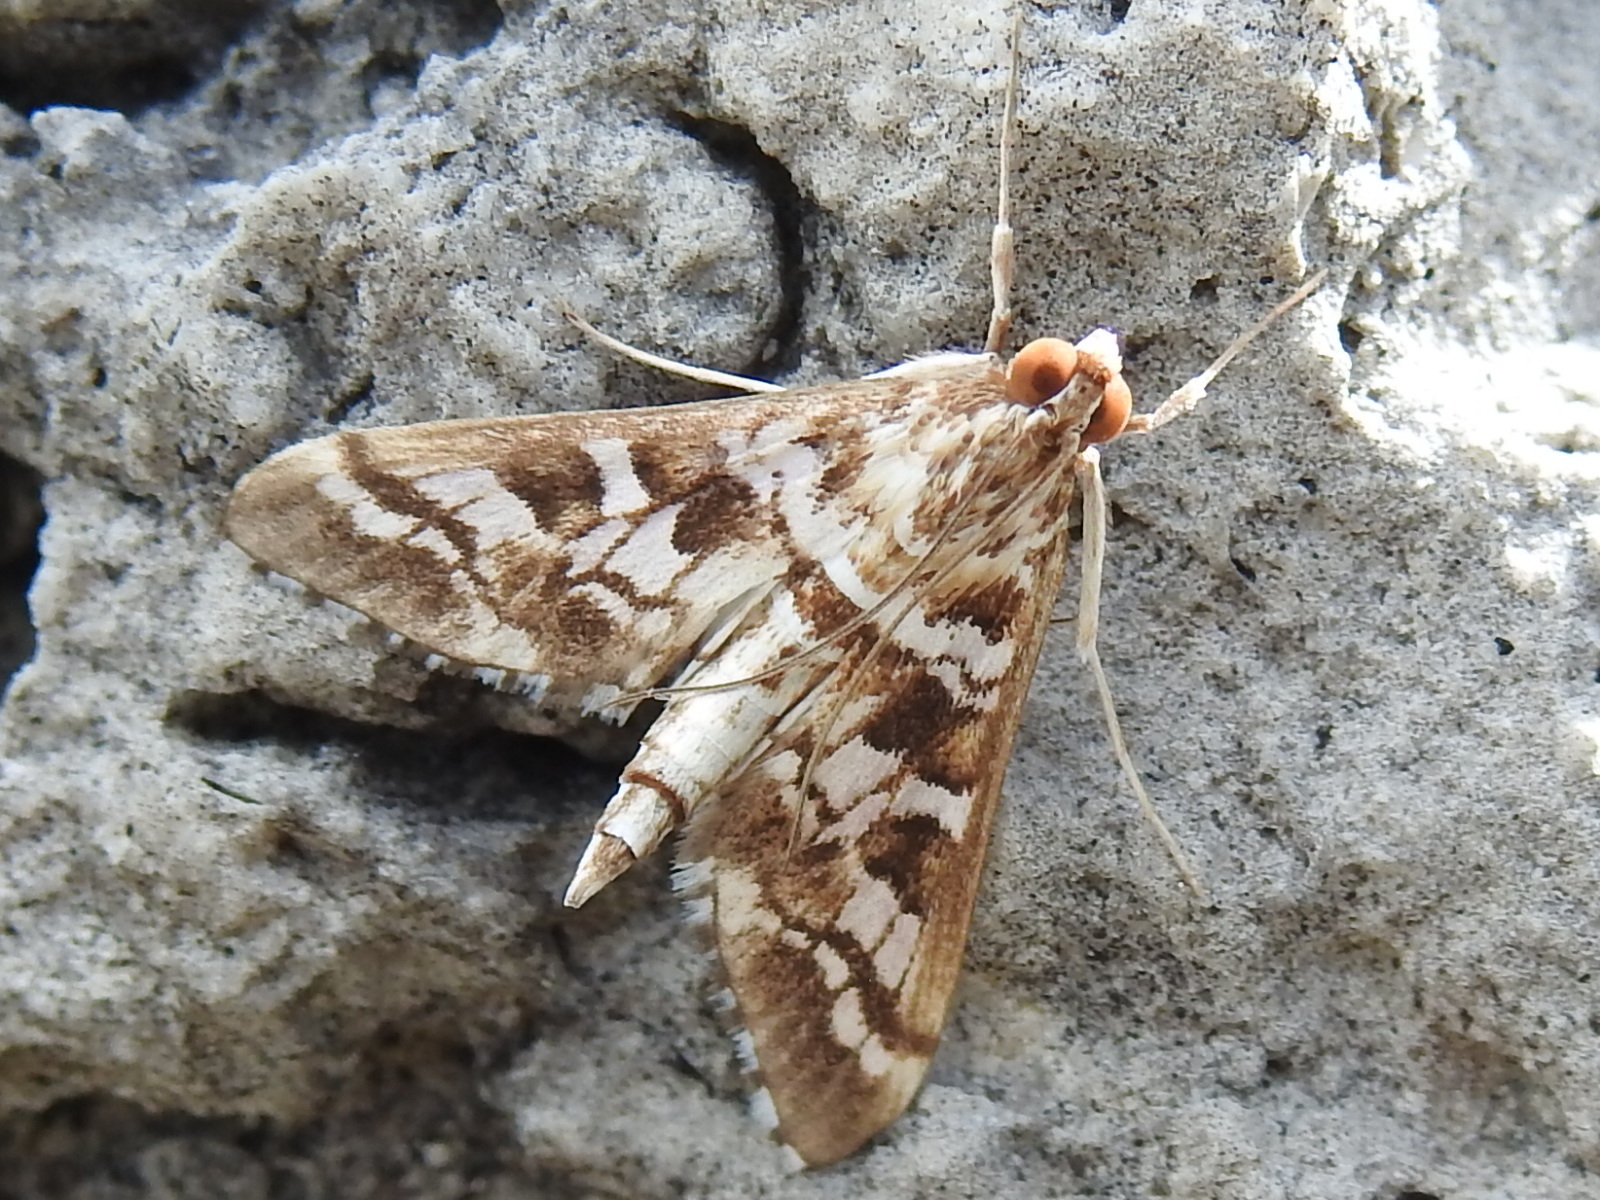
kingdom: Animalia
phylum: Arthropoda
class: Insecta
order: Lepidoptera
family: Crambidae
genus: Epipagis
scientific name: Epipagis forsythae
